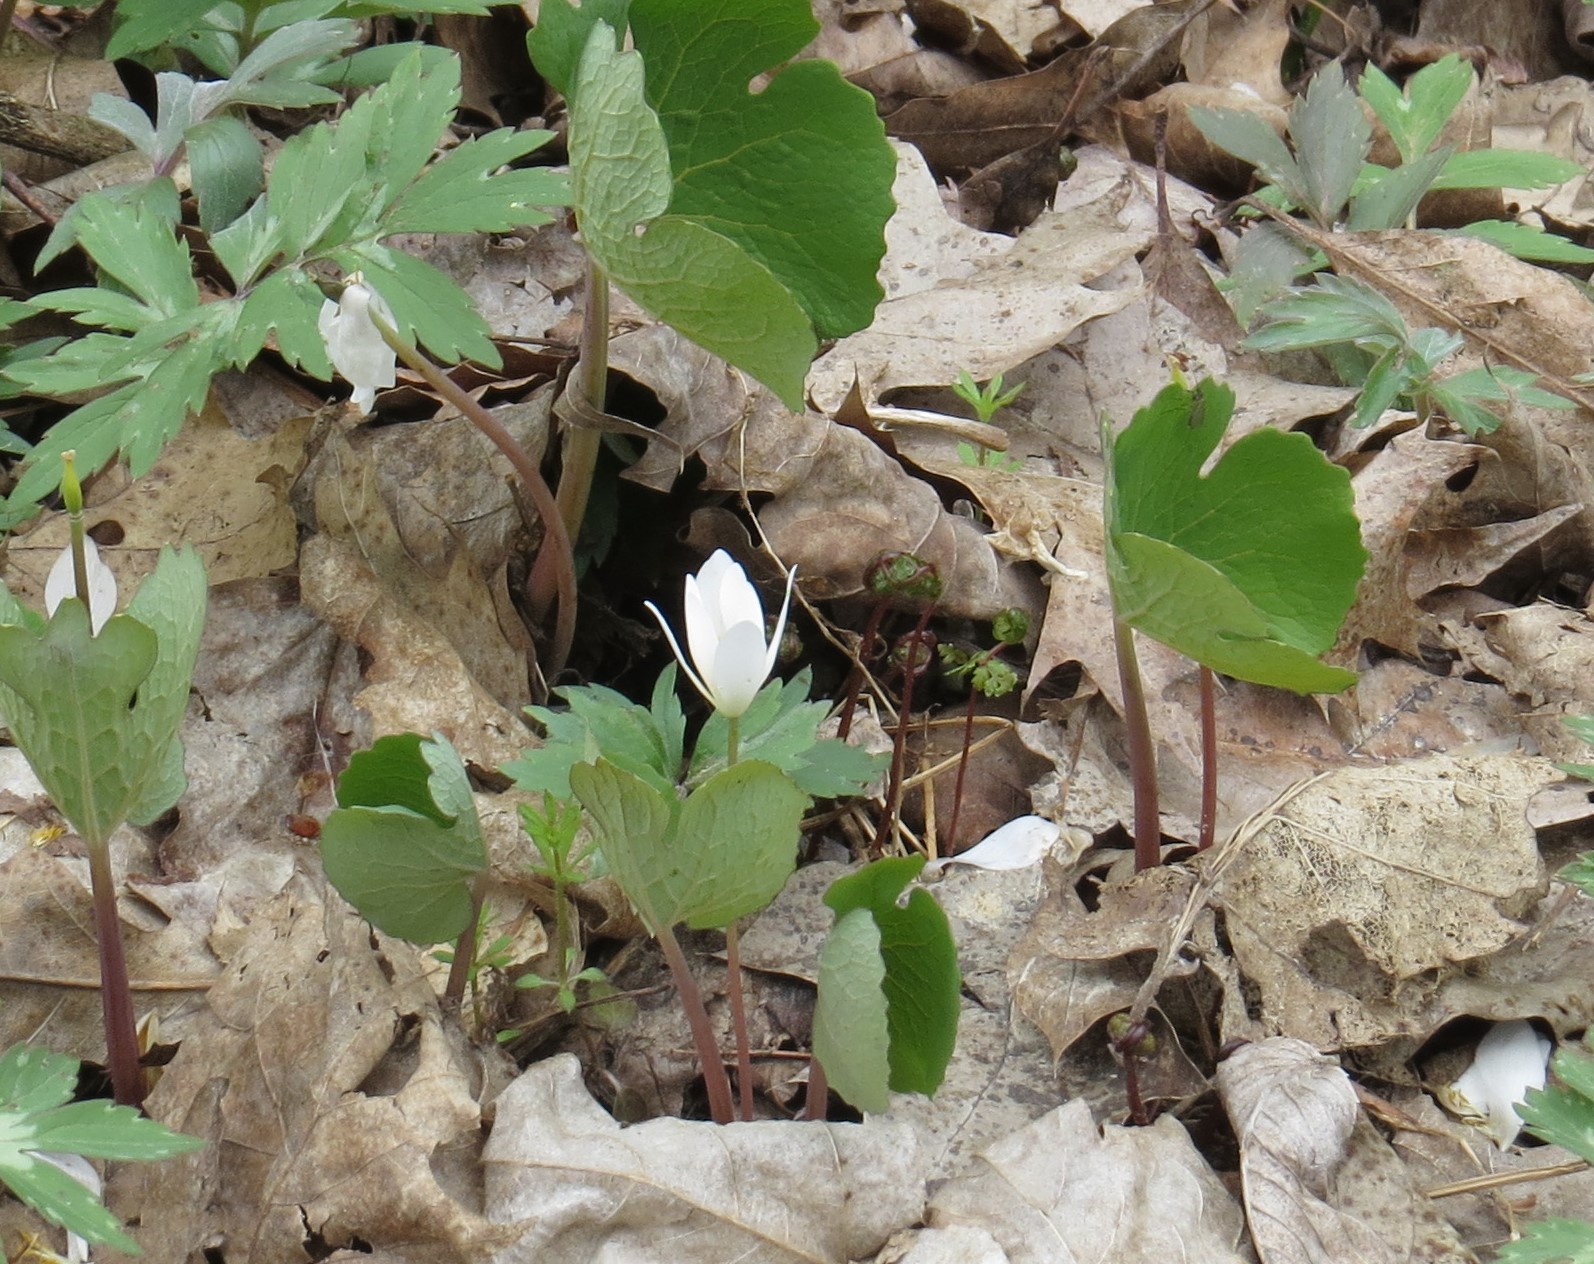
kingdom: Plantae
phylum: Tracheophyta
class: Magnoliopsida
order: Ranunculales
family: Papaveraceae
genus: Sanguinaria
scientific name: Sanguinaria canadensis
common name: Bloodroot
